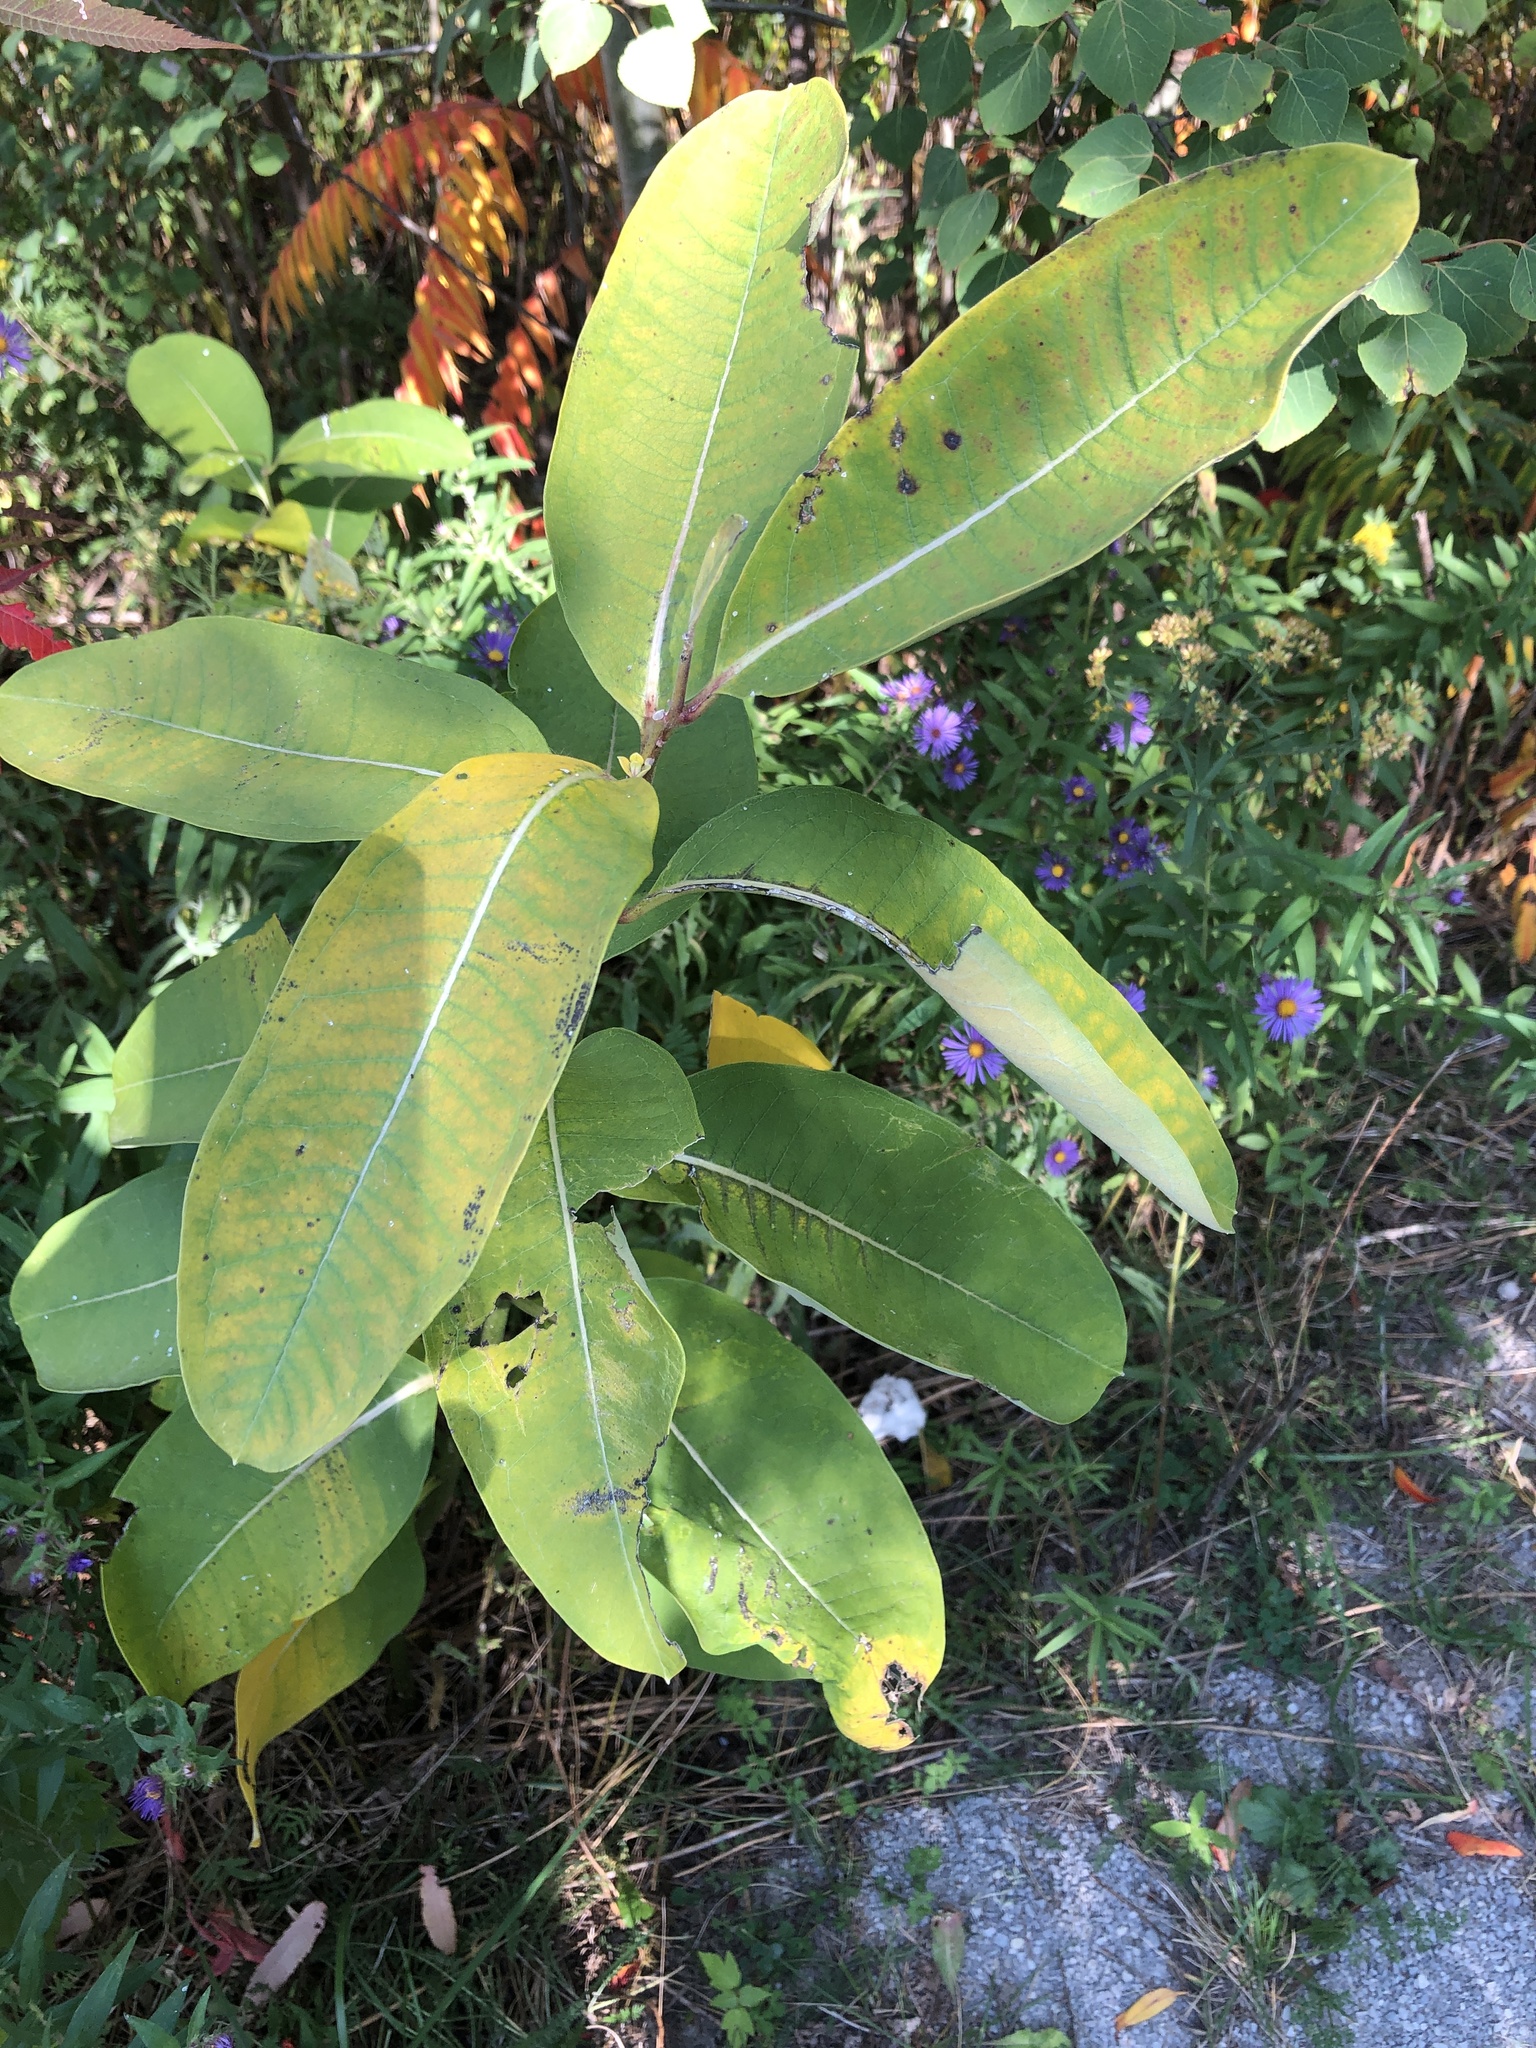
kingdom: Plantae
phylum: Tracheophyta
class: Magnoliopsida
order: Gentianales
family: Apocynaceae
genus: Asclepias
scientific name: Asclepias syriaca
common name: Common milkweed
